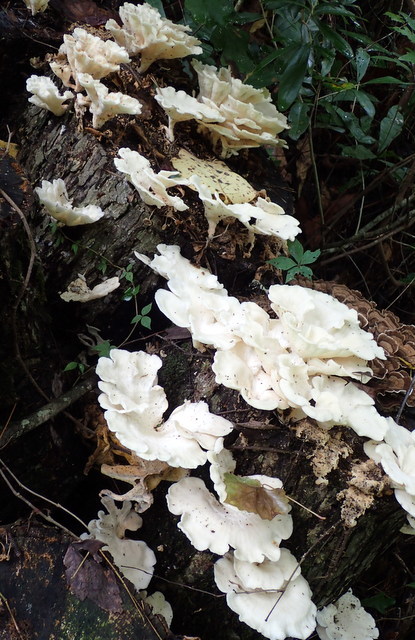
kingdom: Fungi
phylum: Basidiomycota
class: Agaricomycetes
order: Polyporales
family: Polyporaceae
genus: Favolus
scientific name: Favolus tenuiculus
